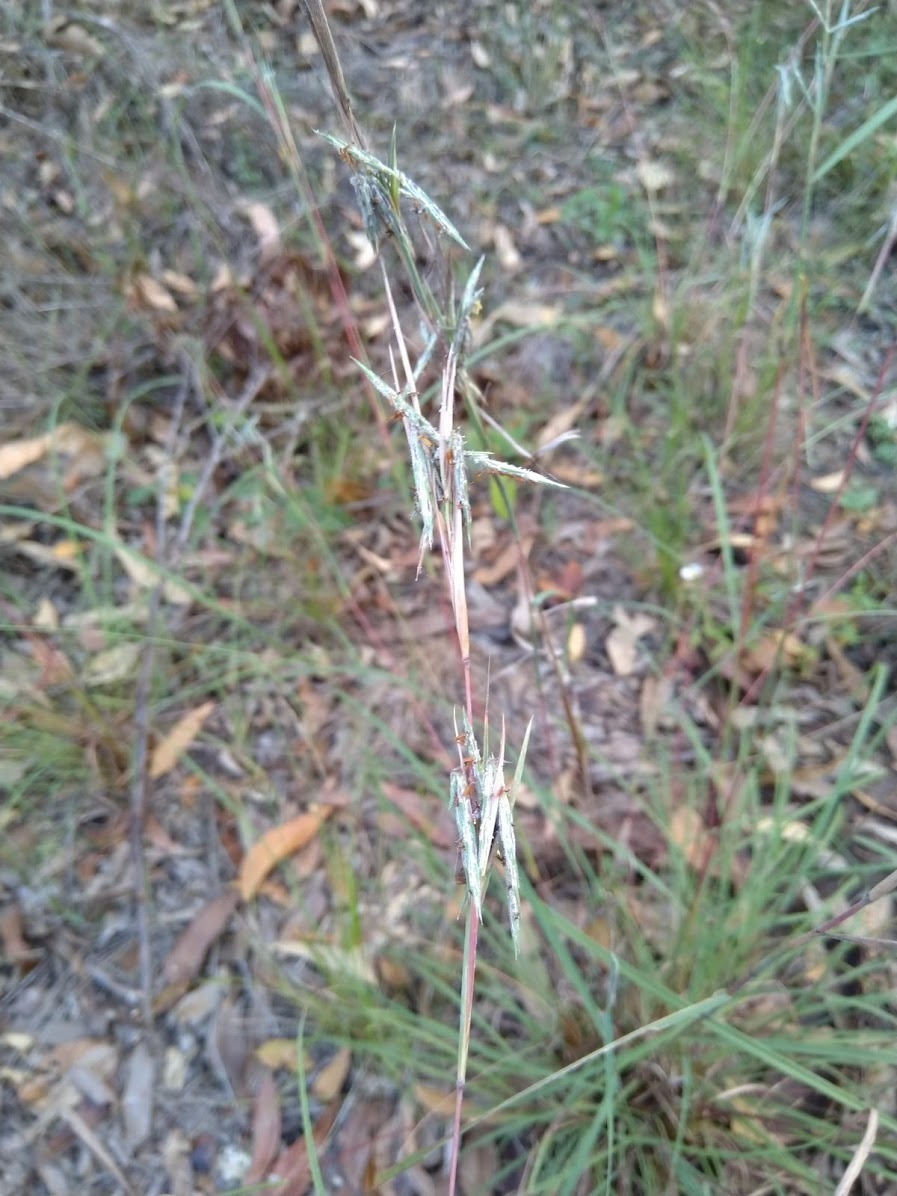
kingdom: Plantae
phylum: Tracheophyta
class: Liliopsida
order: Poales
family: Poaceae
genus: Cymbopogon
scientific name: Cymbopogon refractus
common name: Barbwire grass
